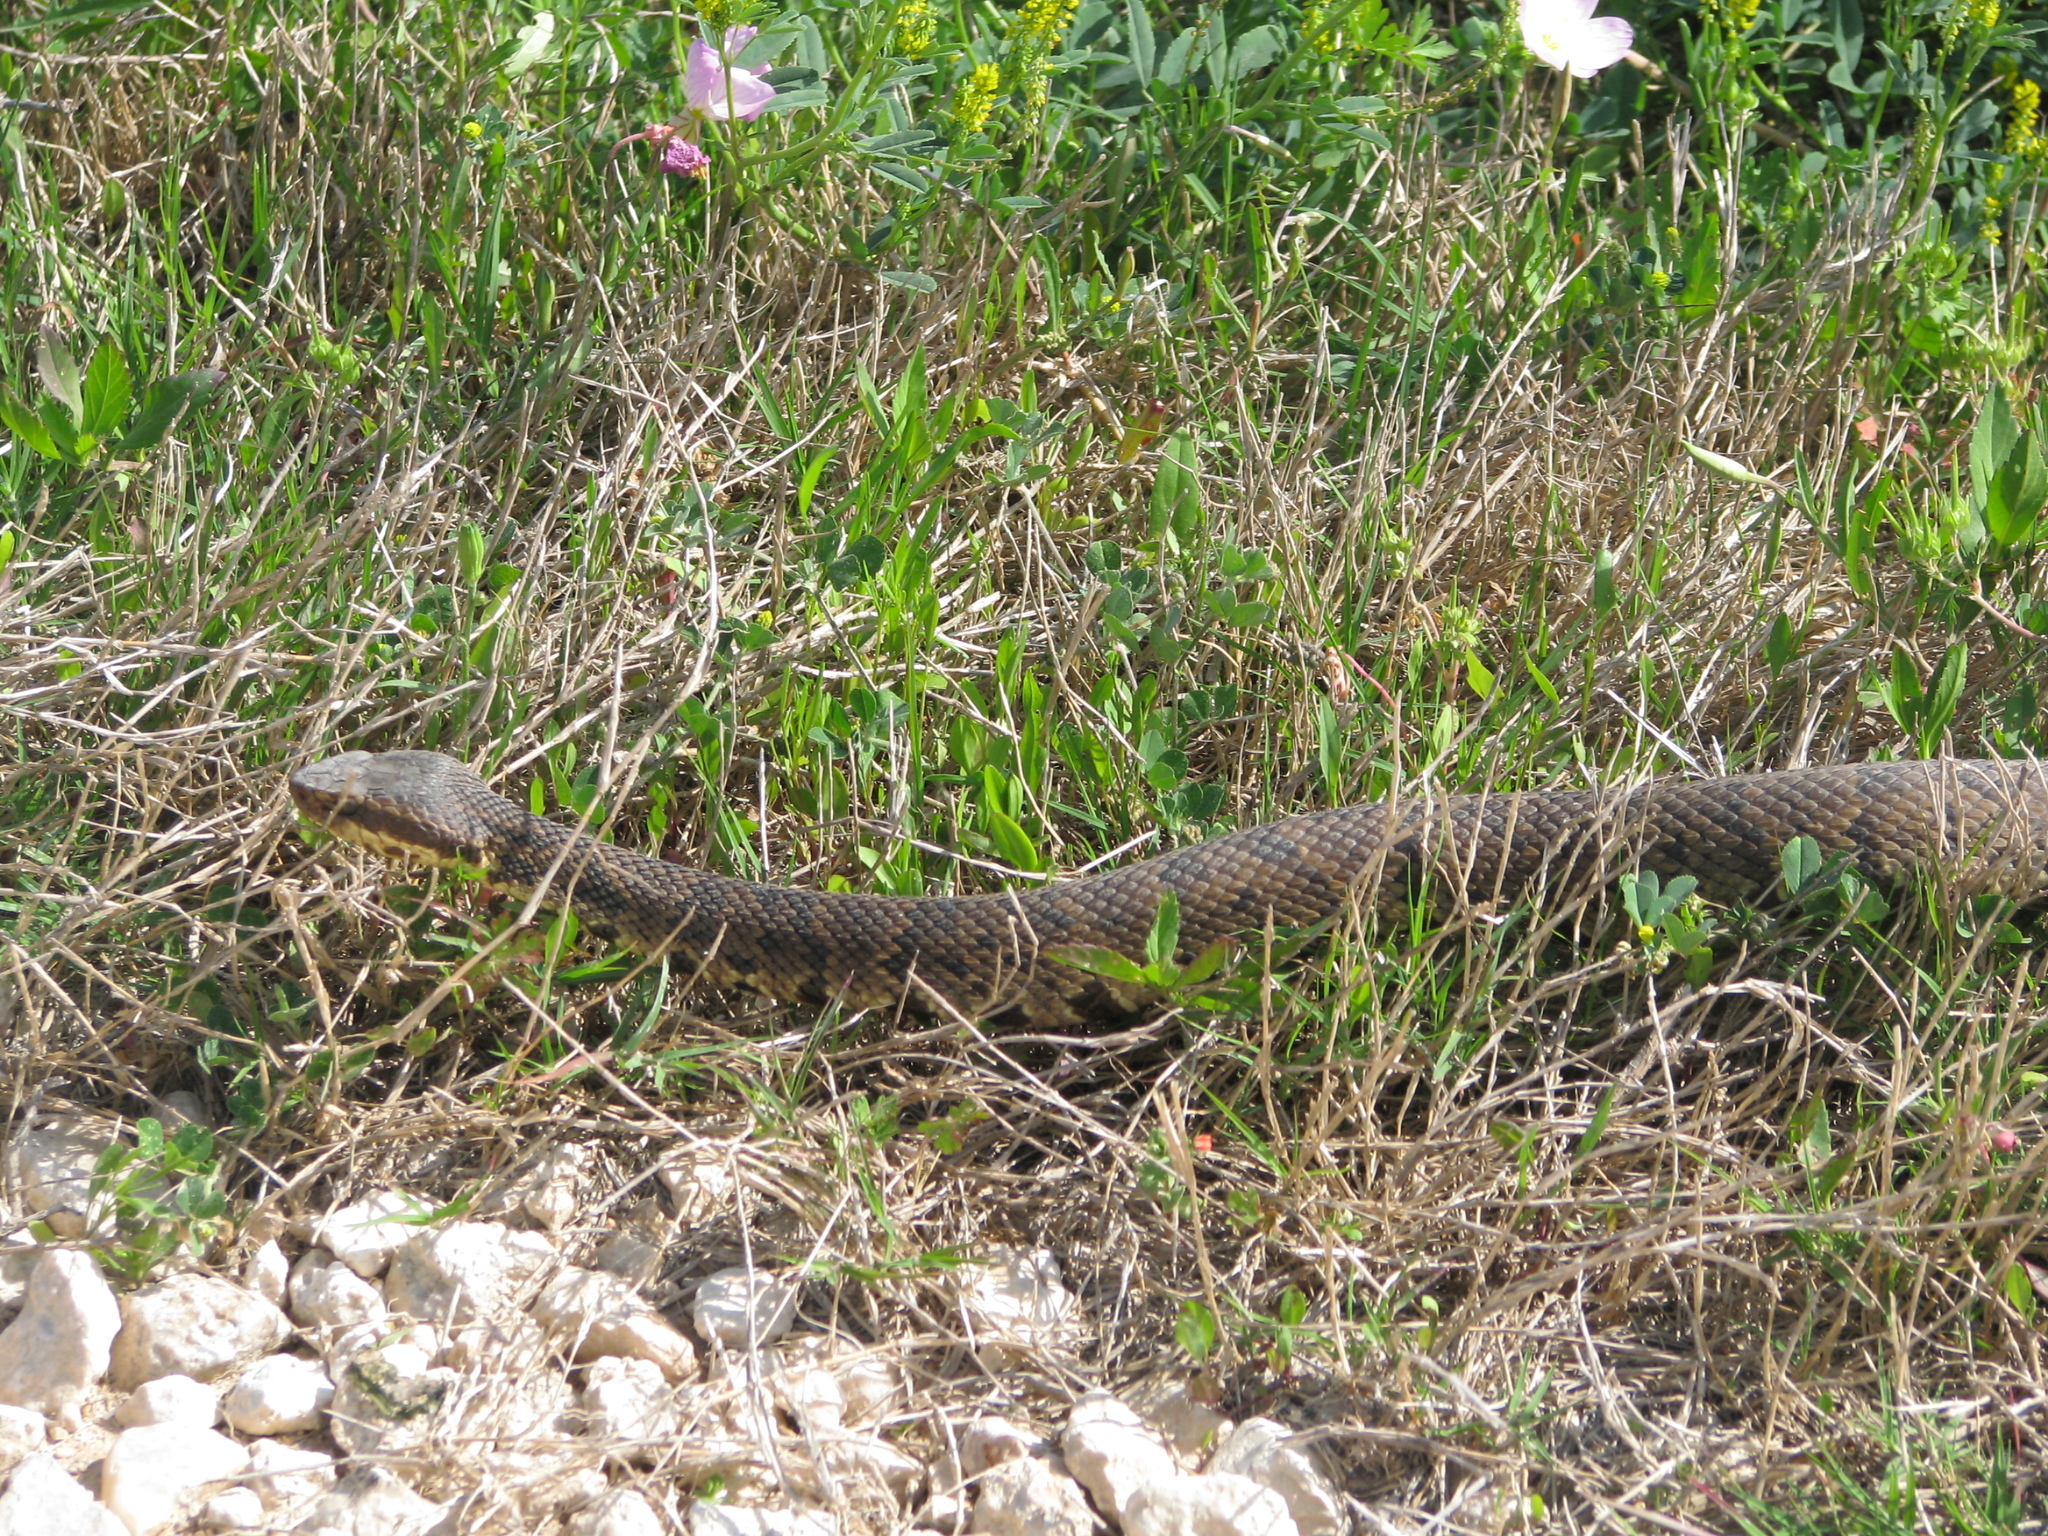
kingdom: Animalia
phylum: Chordata
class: Squamata
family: Viperidae
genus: Agkistrodon
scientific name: Agkistrodon piscivorus
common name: Cottonmouth
